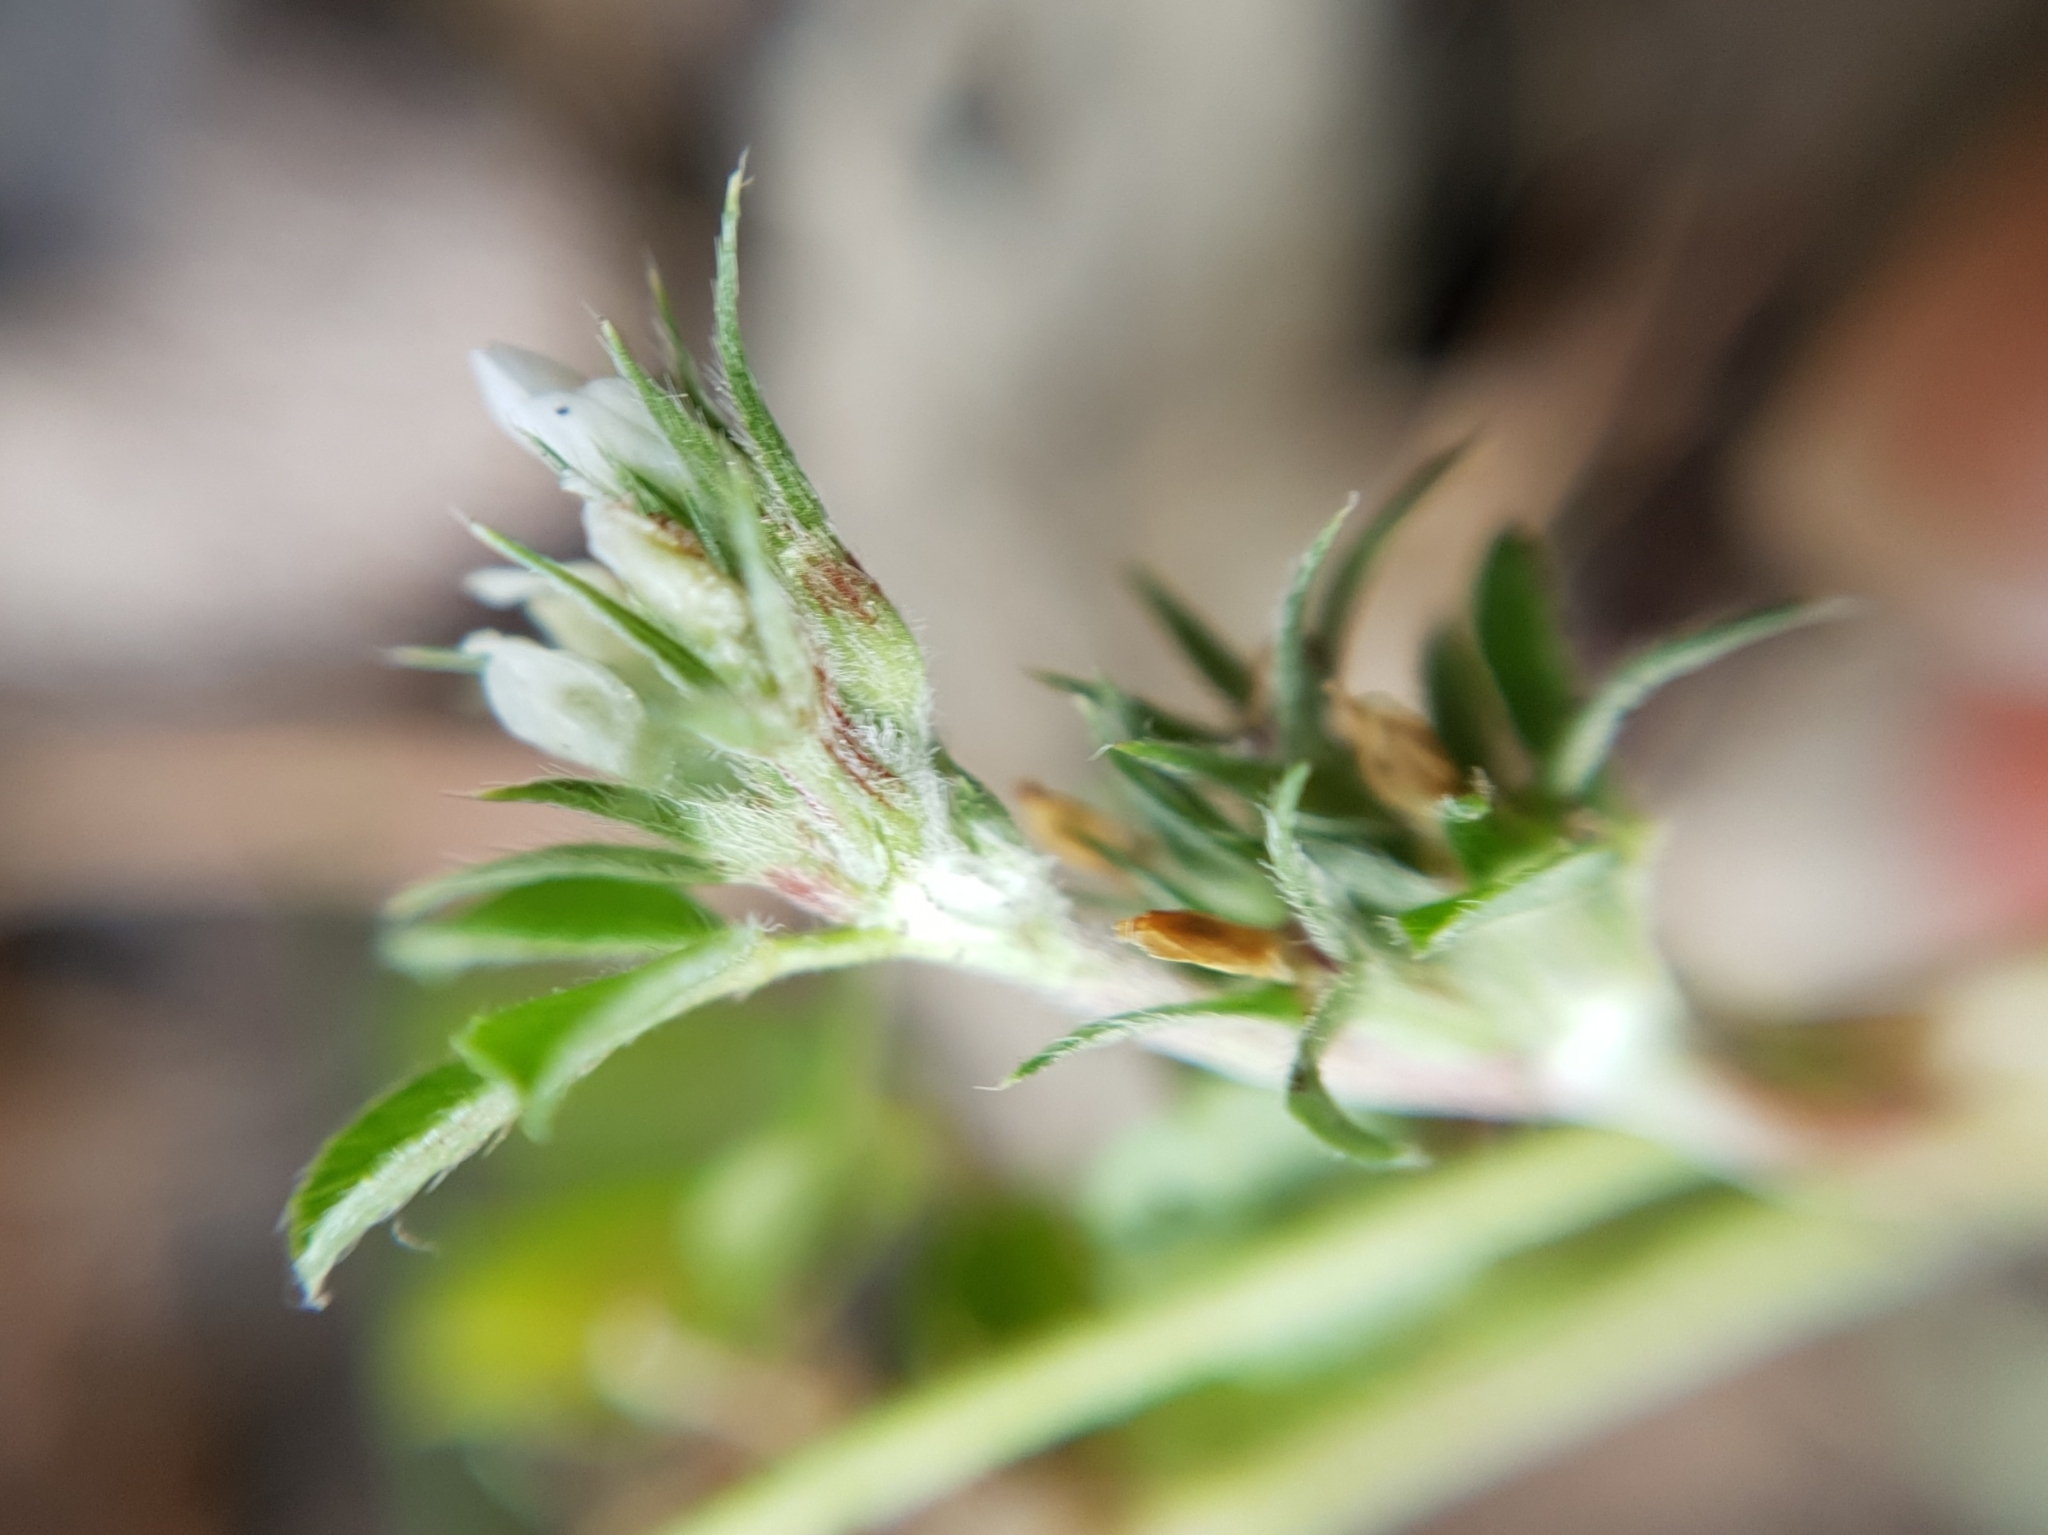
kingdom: Plantae
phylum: Tracheophyta
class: Magnoliopsida
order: Fabales
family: Fabaceae
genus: Trifolium
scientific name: Trifolium scabrum
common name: Rough clover
